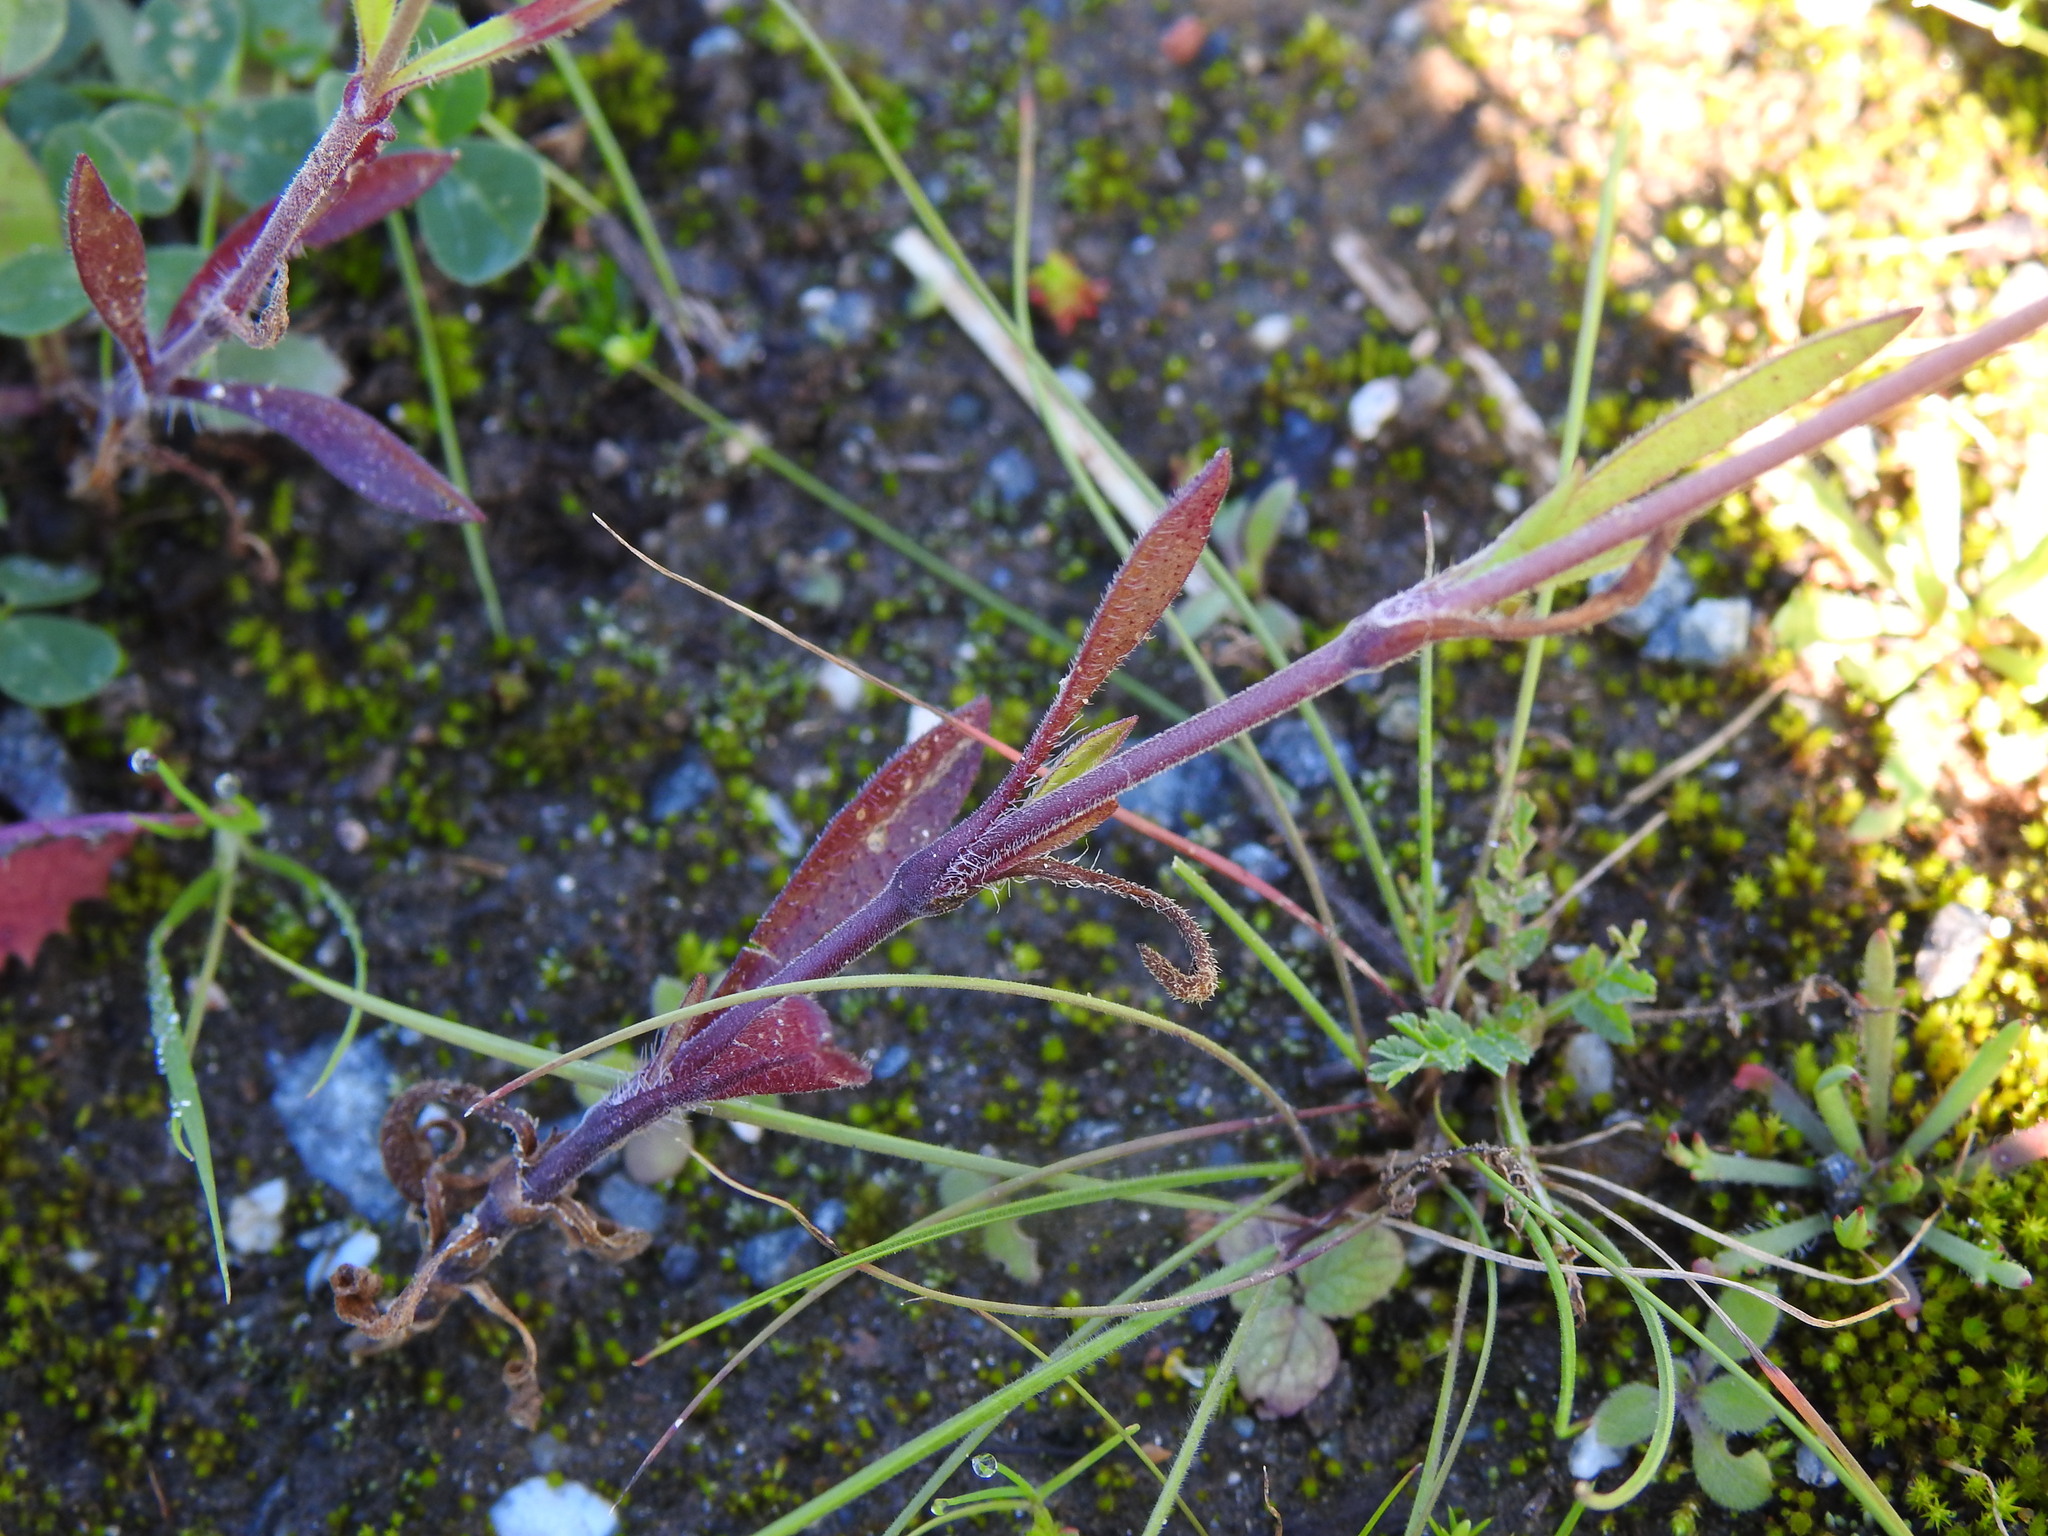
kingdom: Plantae
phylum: Tracheophyta
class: Magnoliopsida
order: Caryophyllales
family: Caryophyllaceae
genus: Silene
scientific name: Silene colorata
